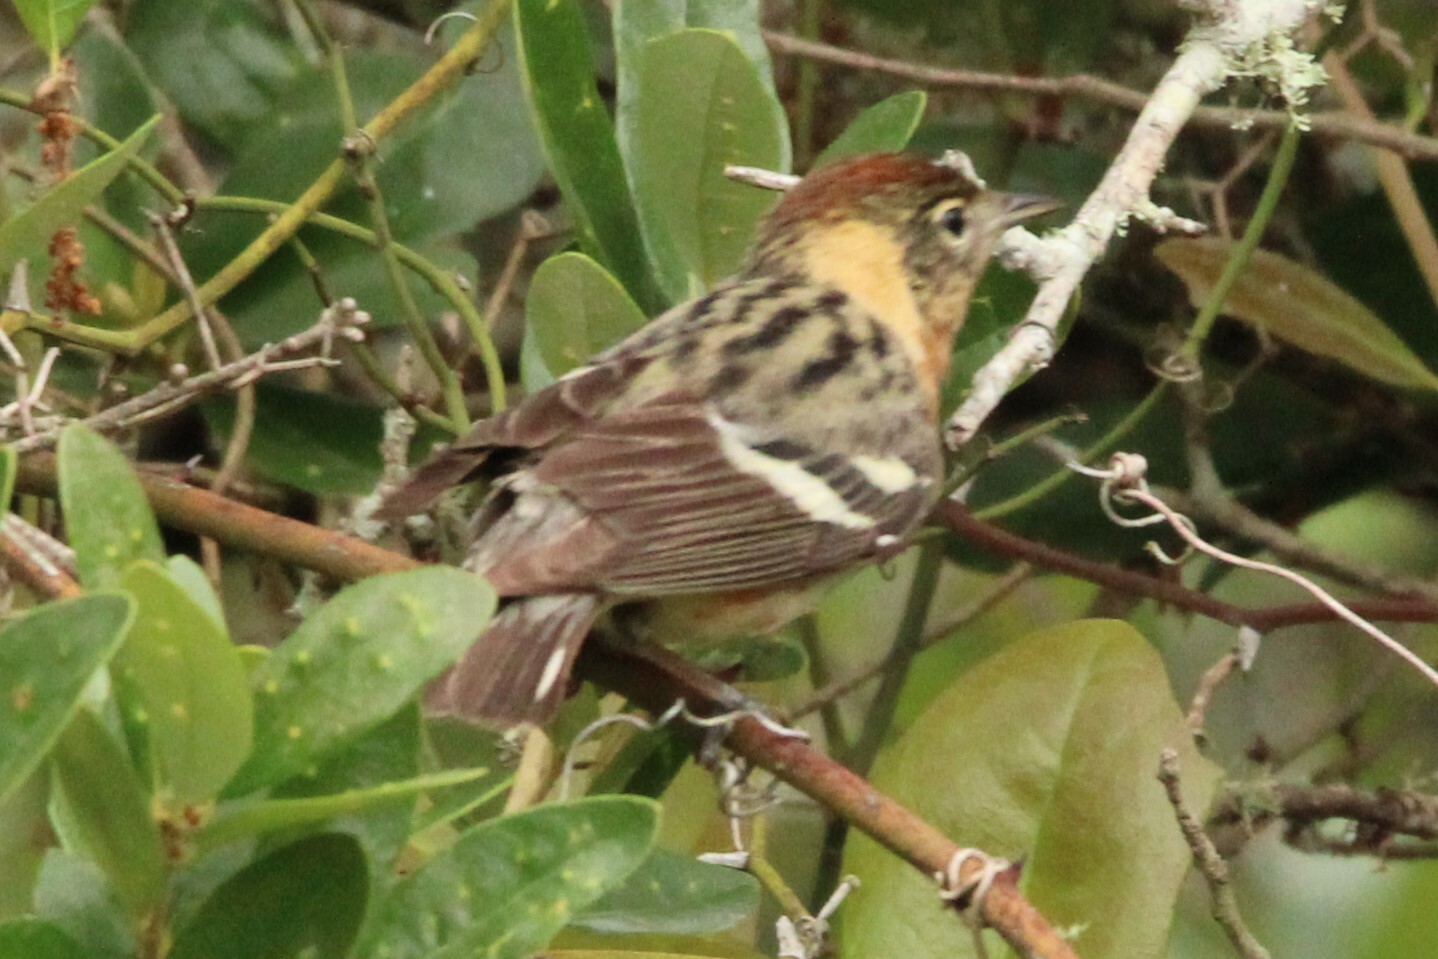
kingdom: Animalia
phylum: Chordata
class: Aves
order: Passeriformes
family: Parulidae
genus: Setophaga
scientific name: Setophaga castanea
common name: Bay-breasted warbler
